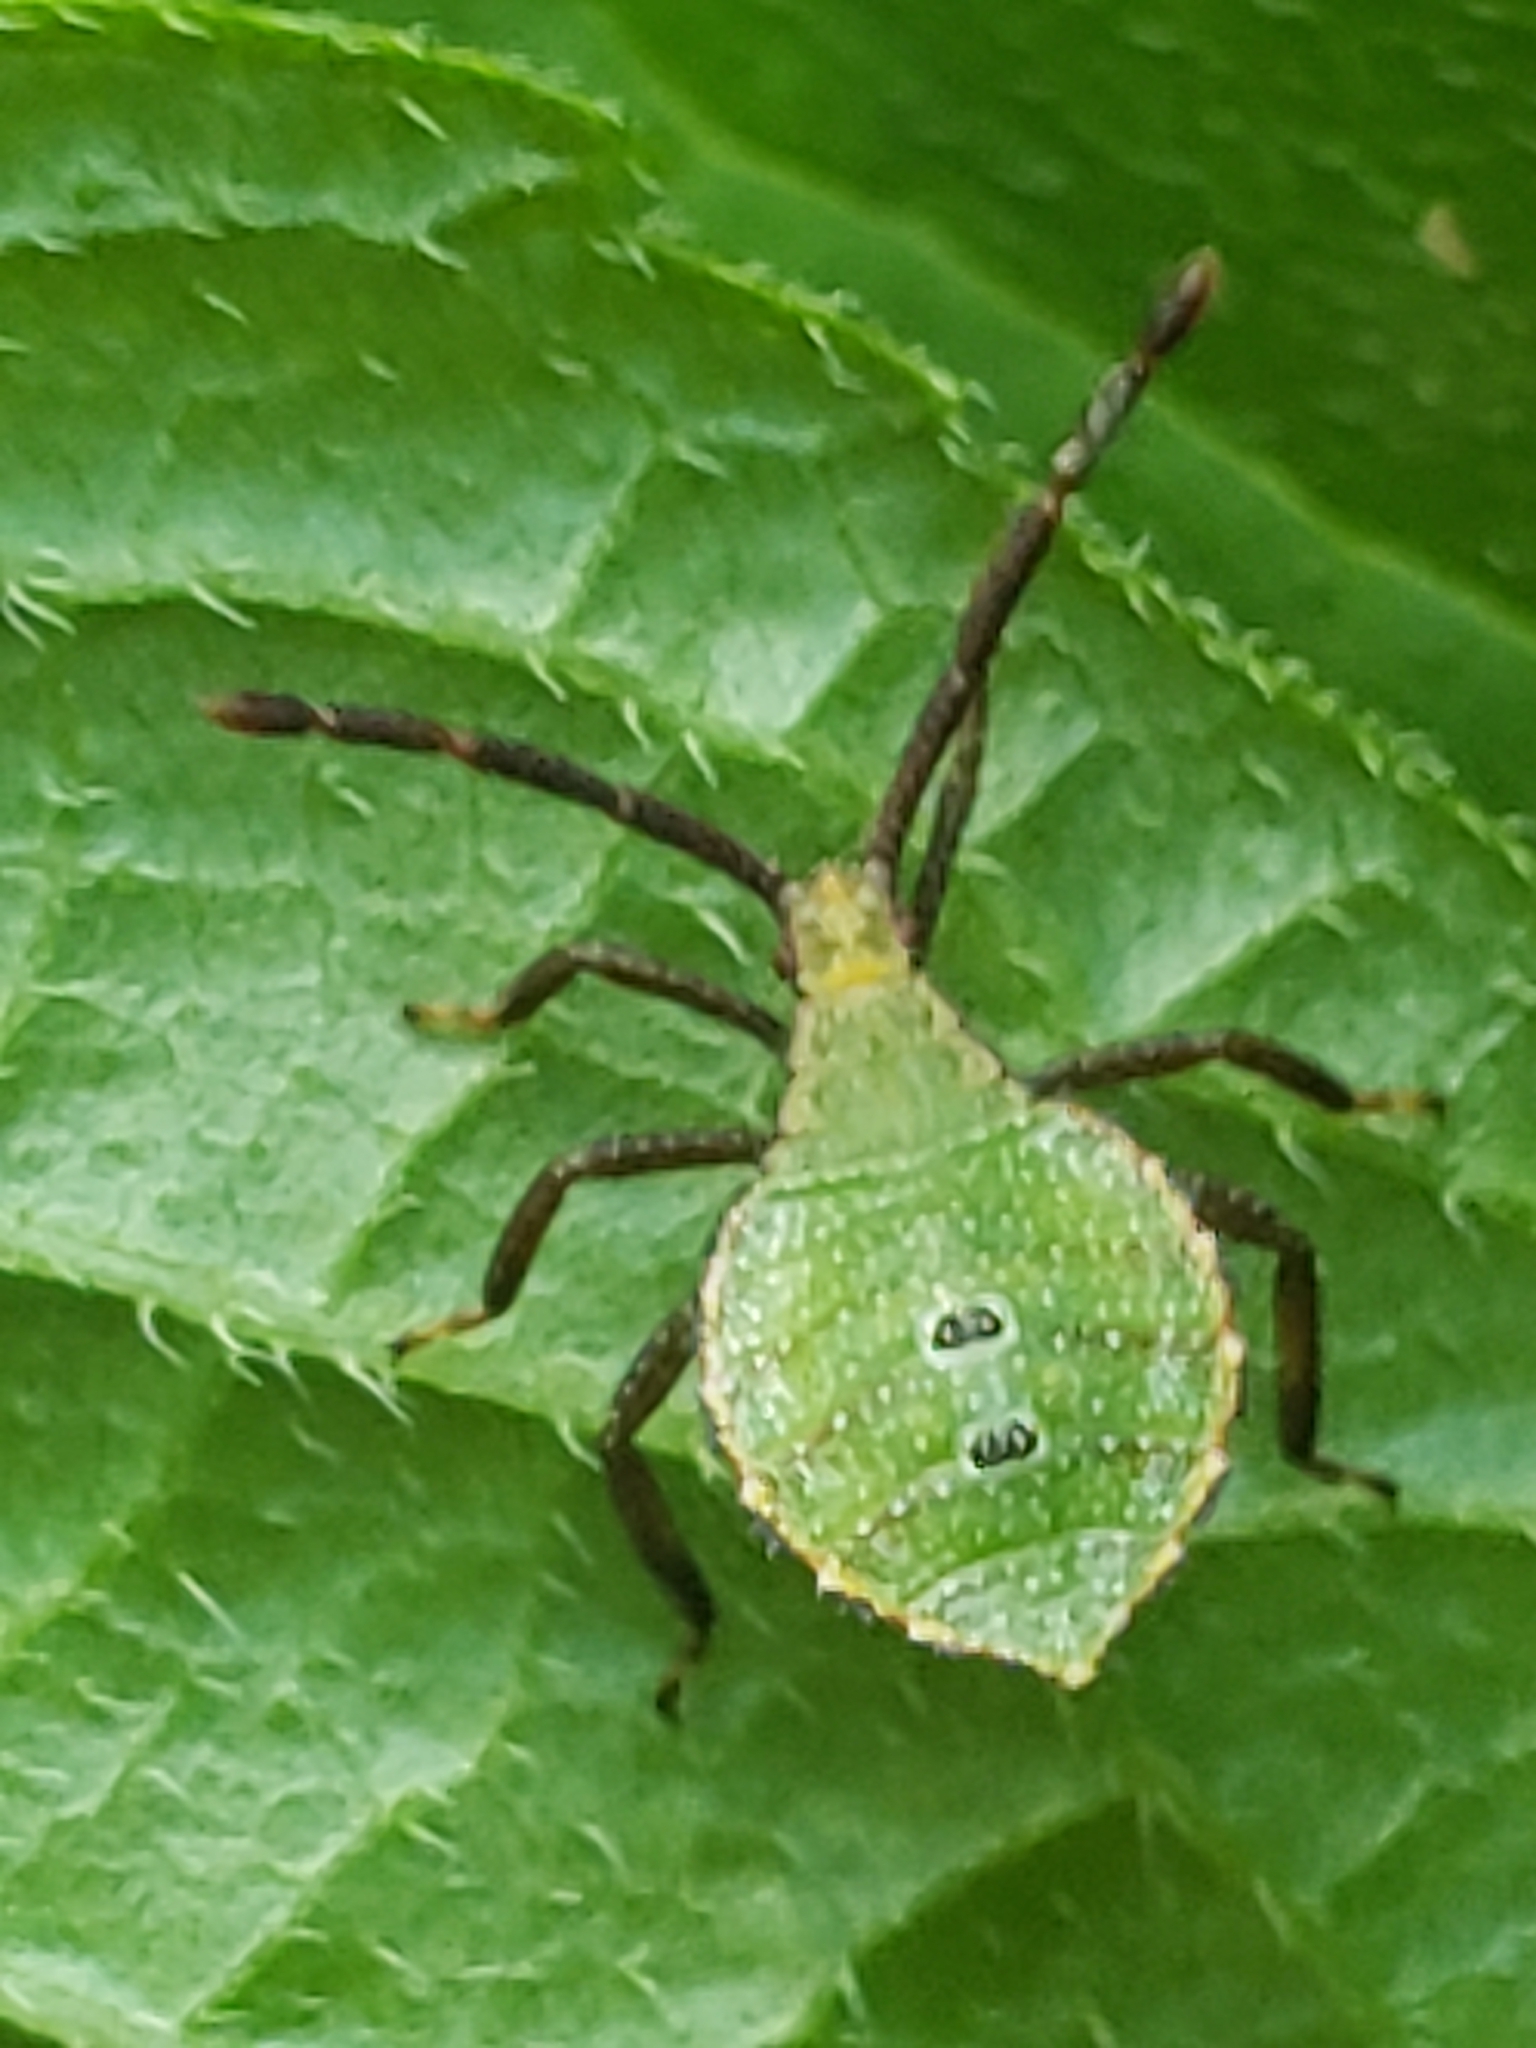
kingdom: Animalia
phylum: Arthropoda
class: Insecta
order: Hemiptera
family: Coreidae
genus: Piezogaster
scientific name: Piezogaster calcarator
